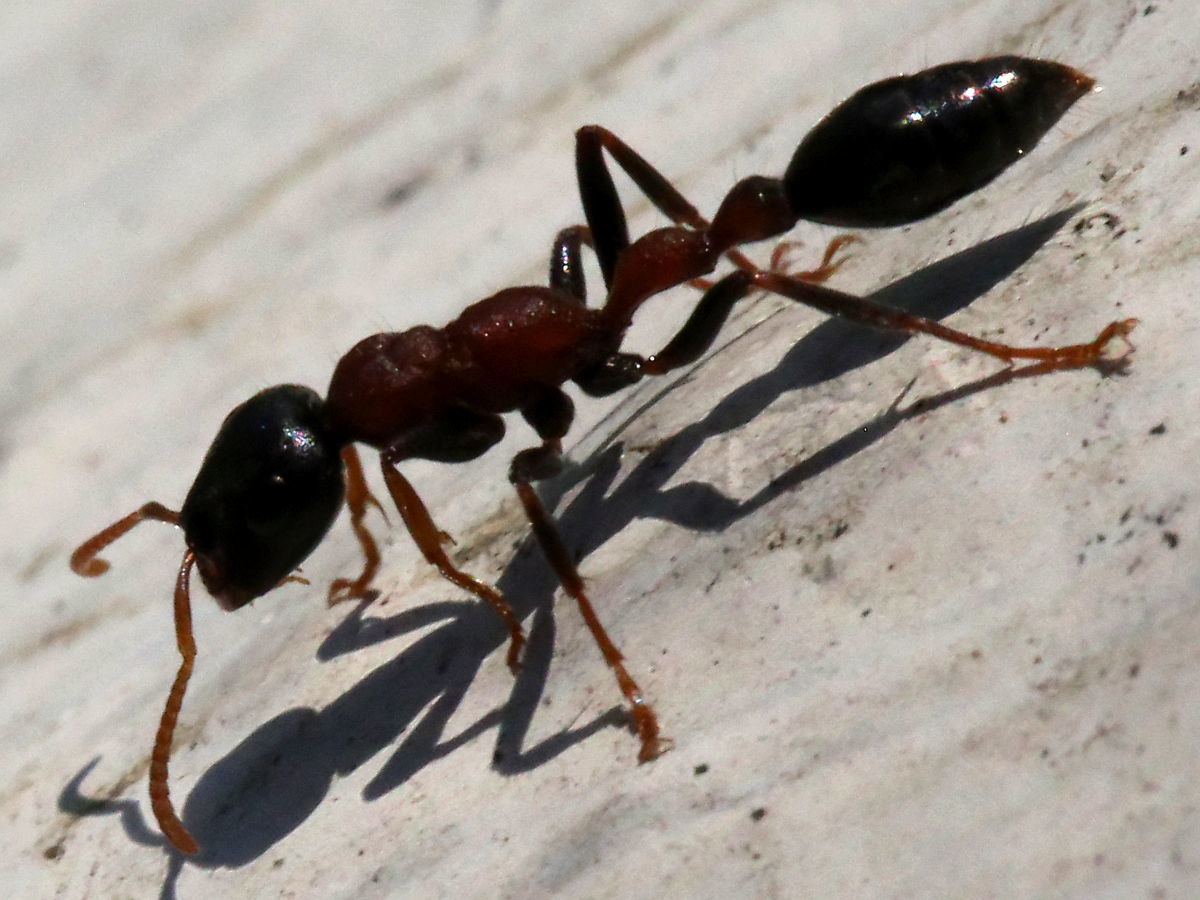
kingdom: Animalia
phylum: Arthropoda
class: Insecta
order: Hymenoptera
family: Formicidae
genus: Tetraponera
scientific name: Tetraponera rufonigra
